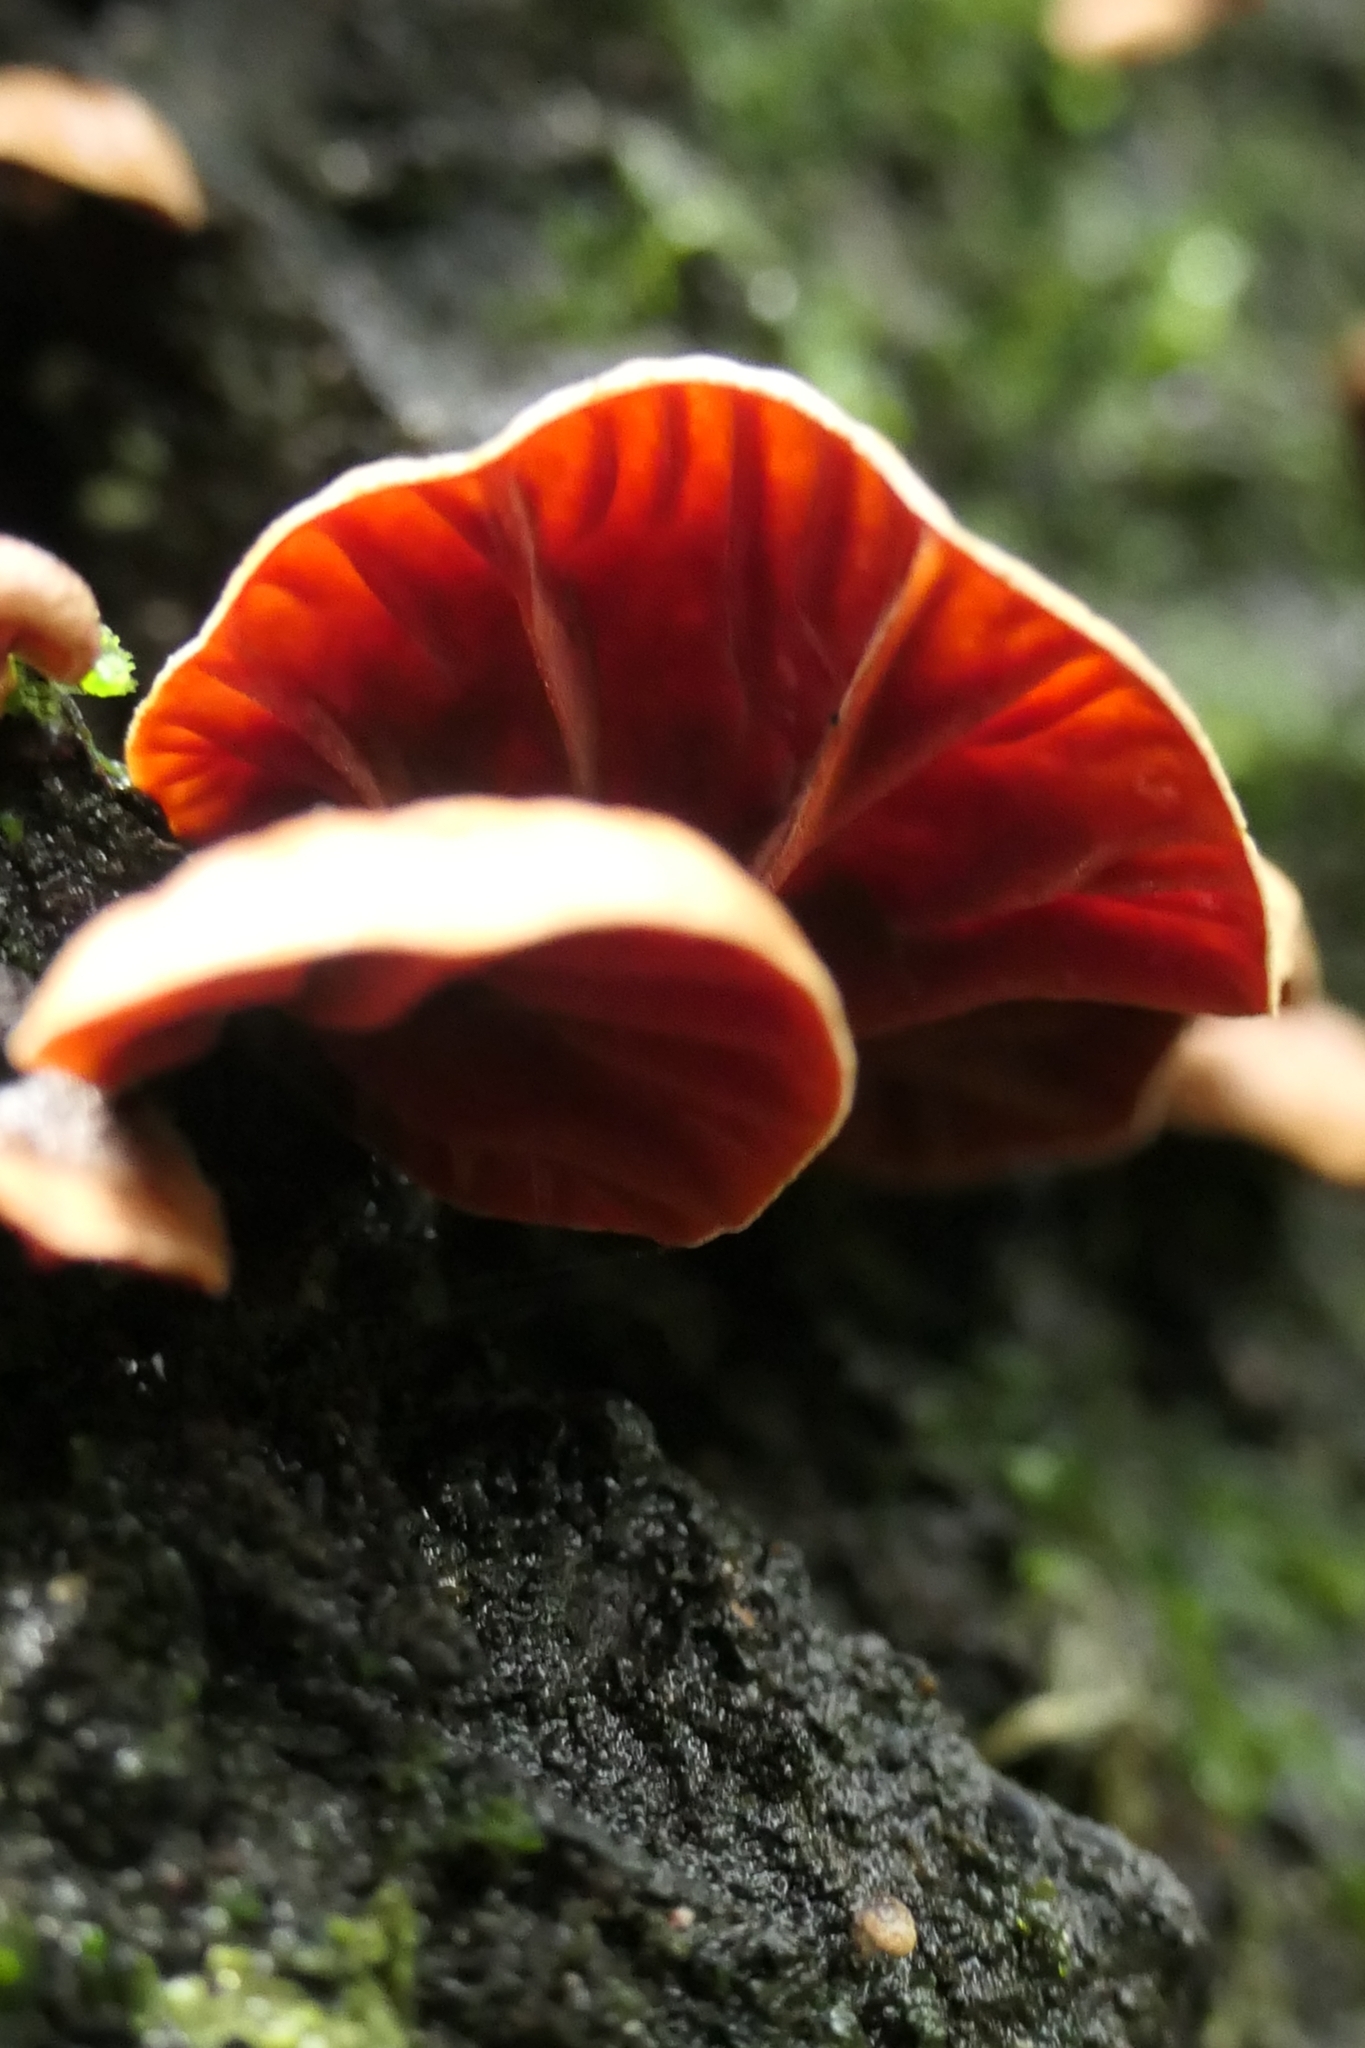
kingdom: Fungi
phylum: Basidiomycota
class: Agaricomycetes
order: Agaricales
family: Omphalotaceae
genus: Anthracophyllum
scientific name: Anthracophyllum archeri
